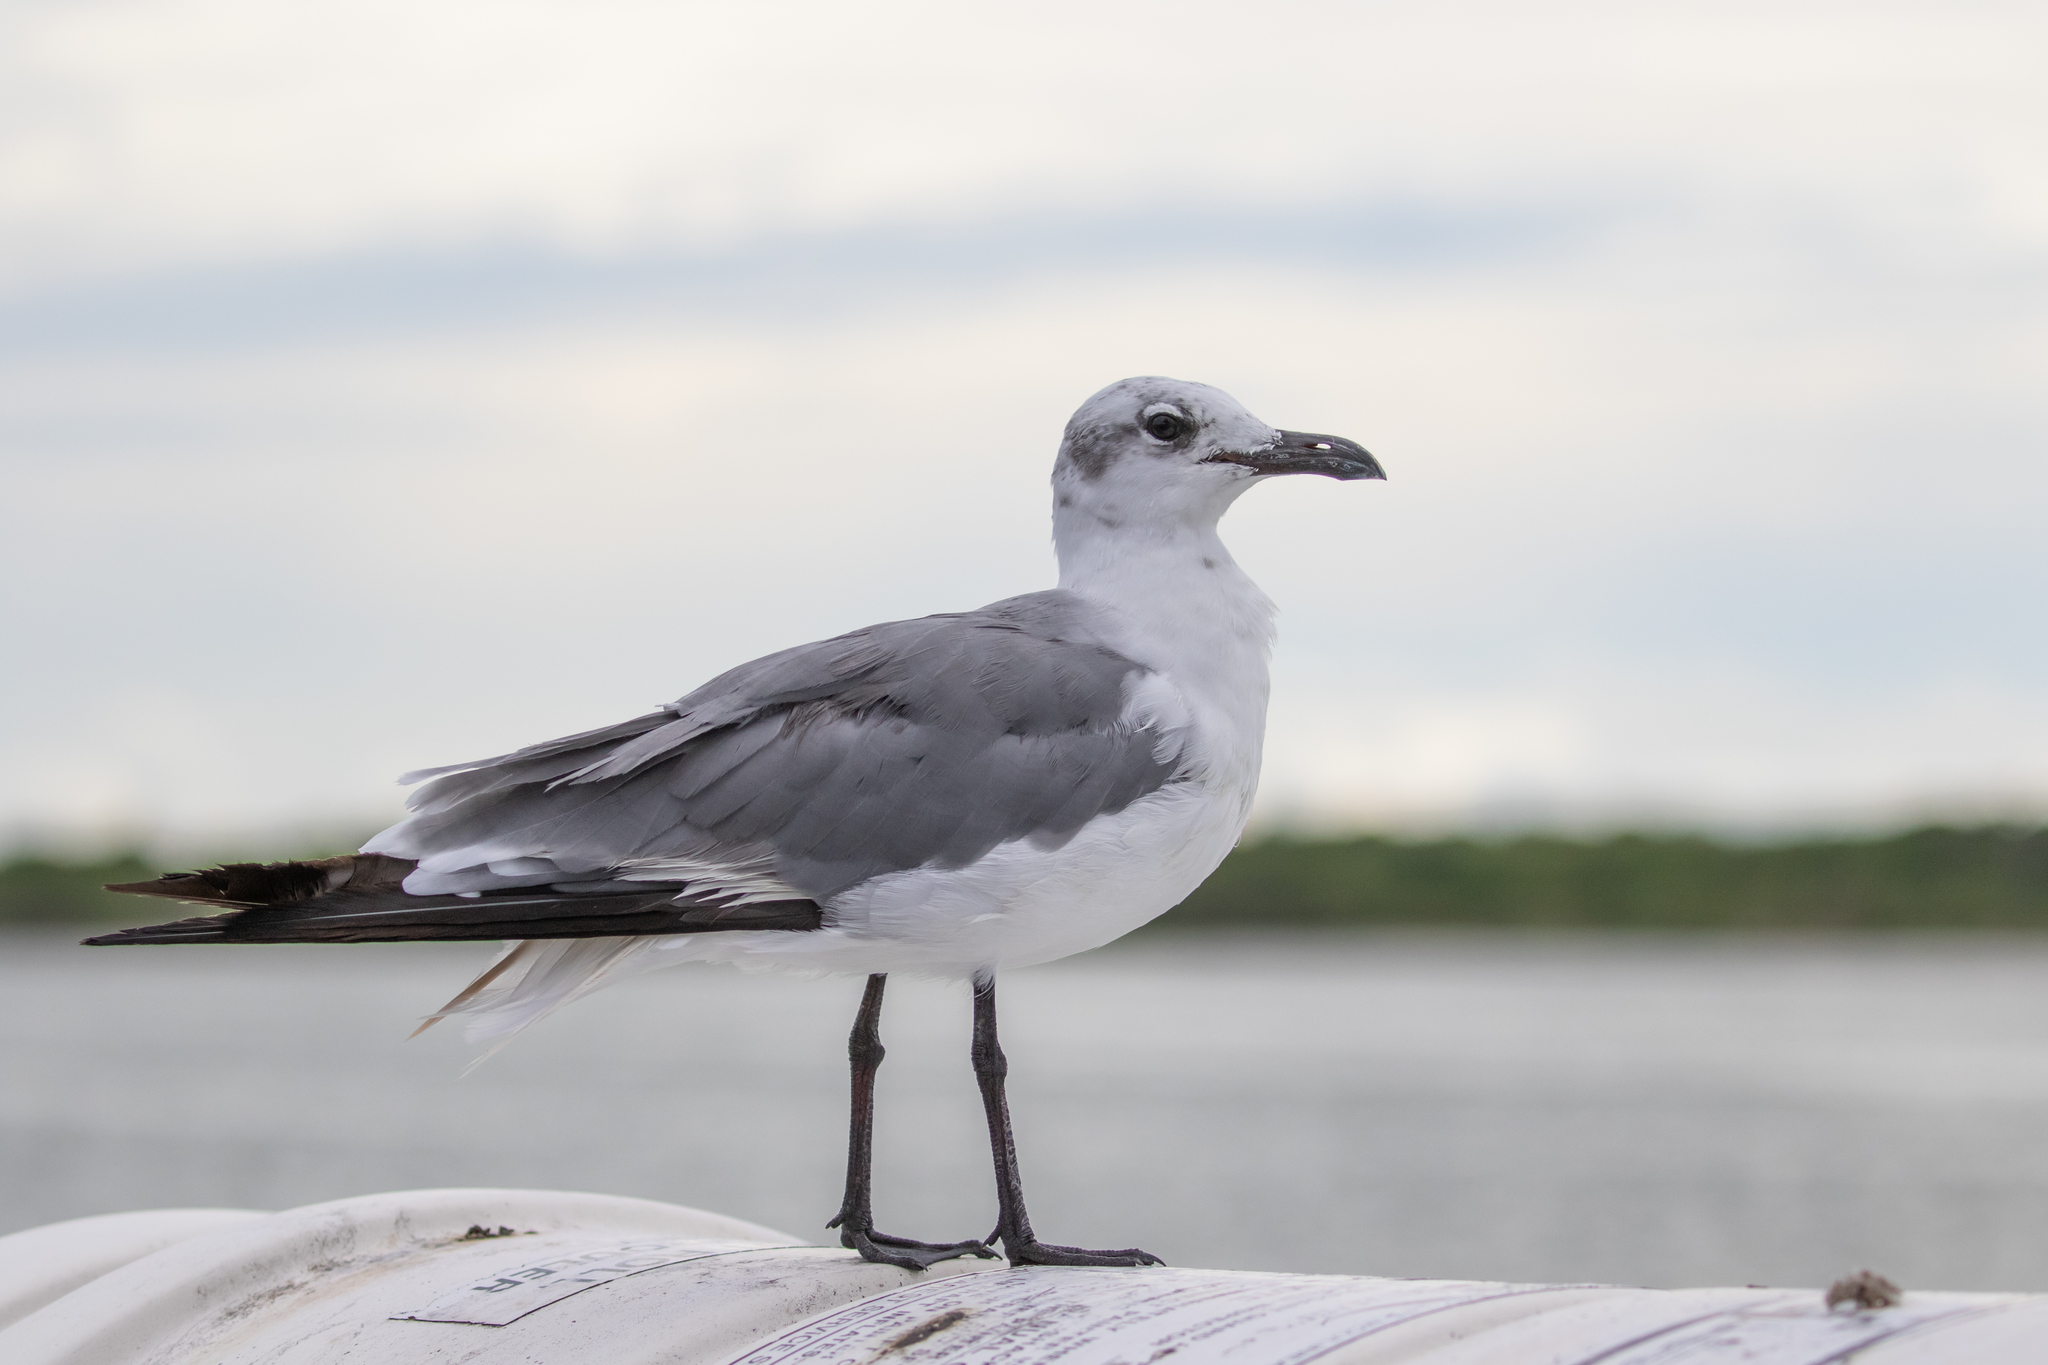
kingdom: Animalia
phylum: Chordata
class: Aves
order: Charadriiformes
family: Laridae
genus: Leucophaeus
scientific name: Leucophaeus atricilla
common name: Laughing gull
